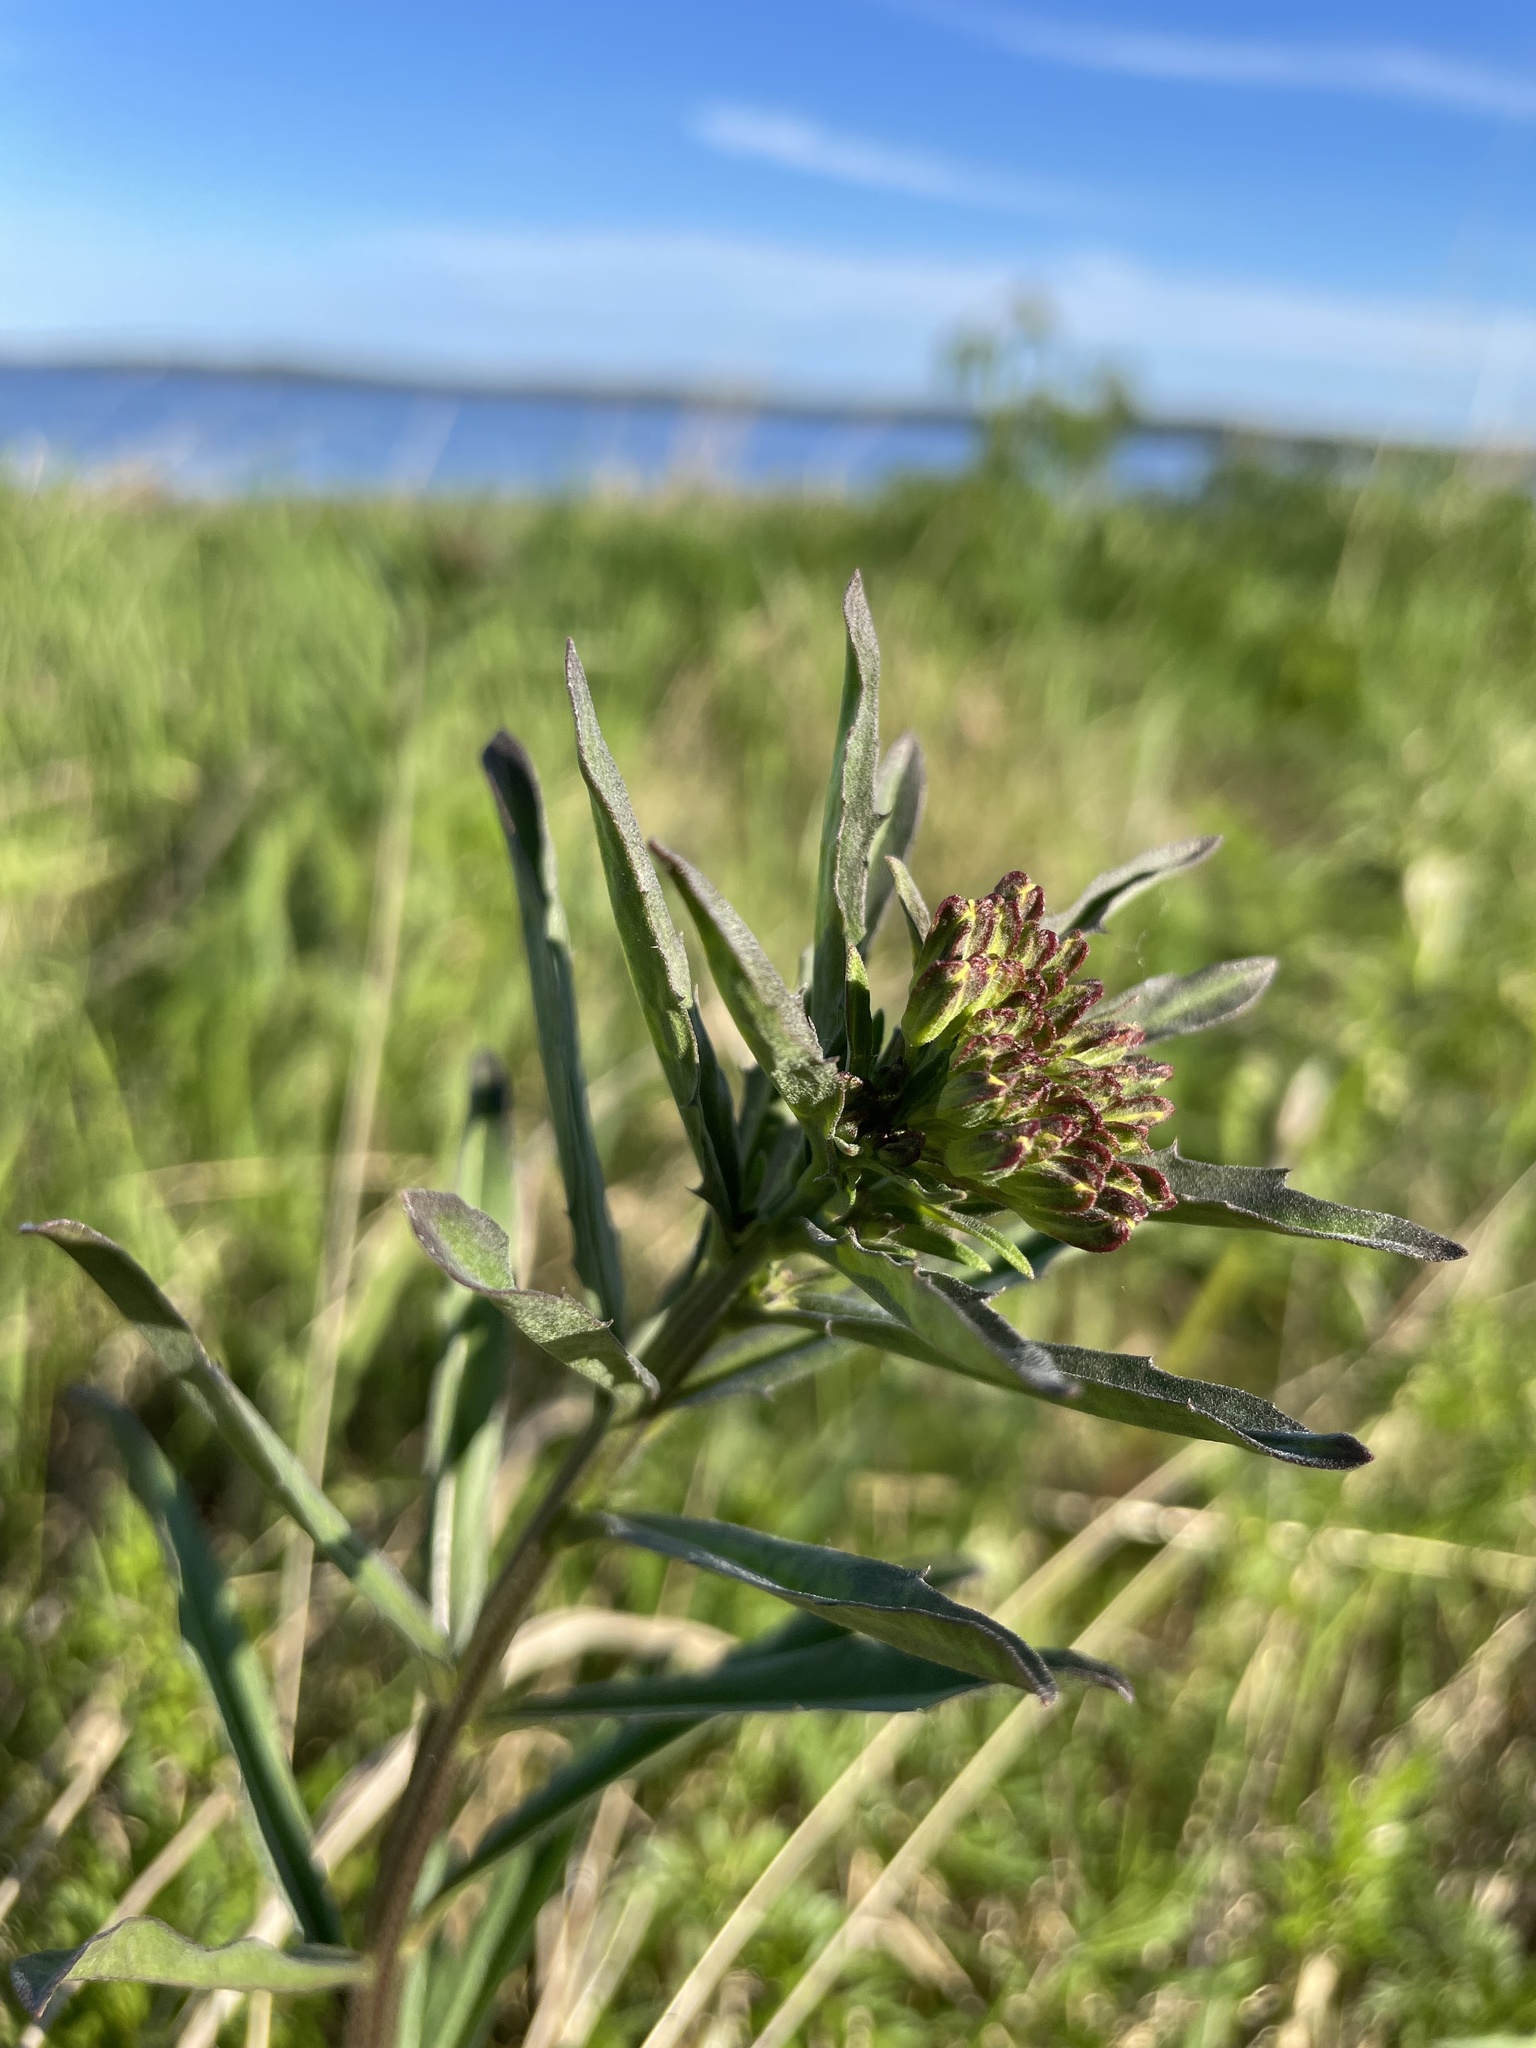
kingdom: Plantae
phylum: Tracheophyta
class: Magnoliopsida
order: Brassicales
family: Brassicaceae
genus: Erysimum
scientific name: Erysimum hieraciifolium
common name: European wallflower
